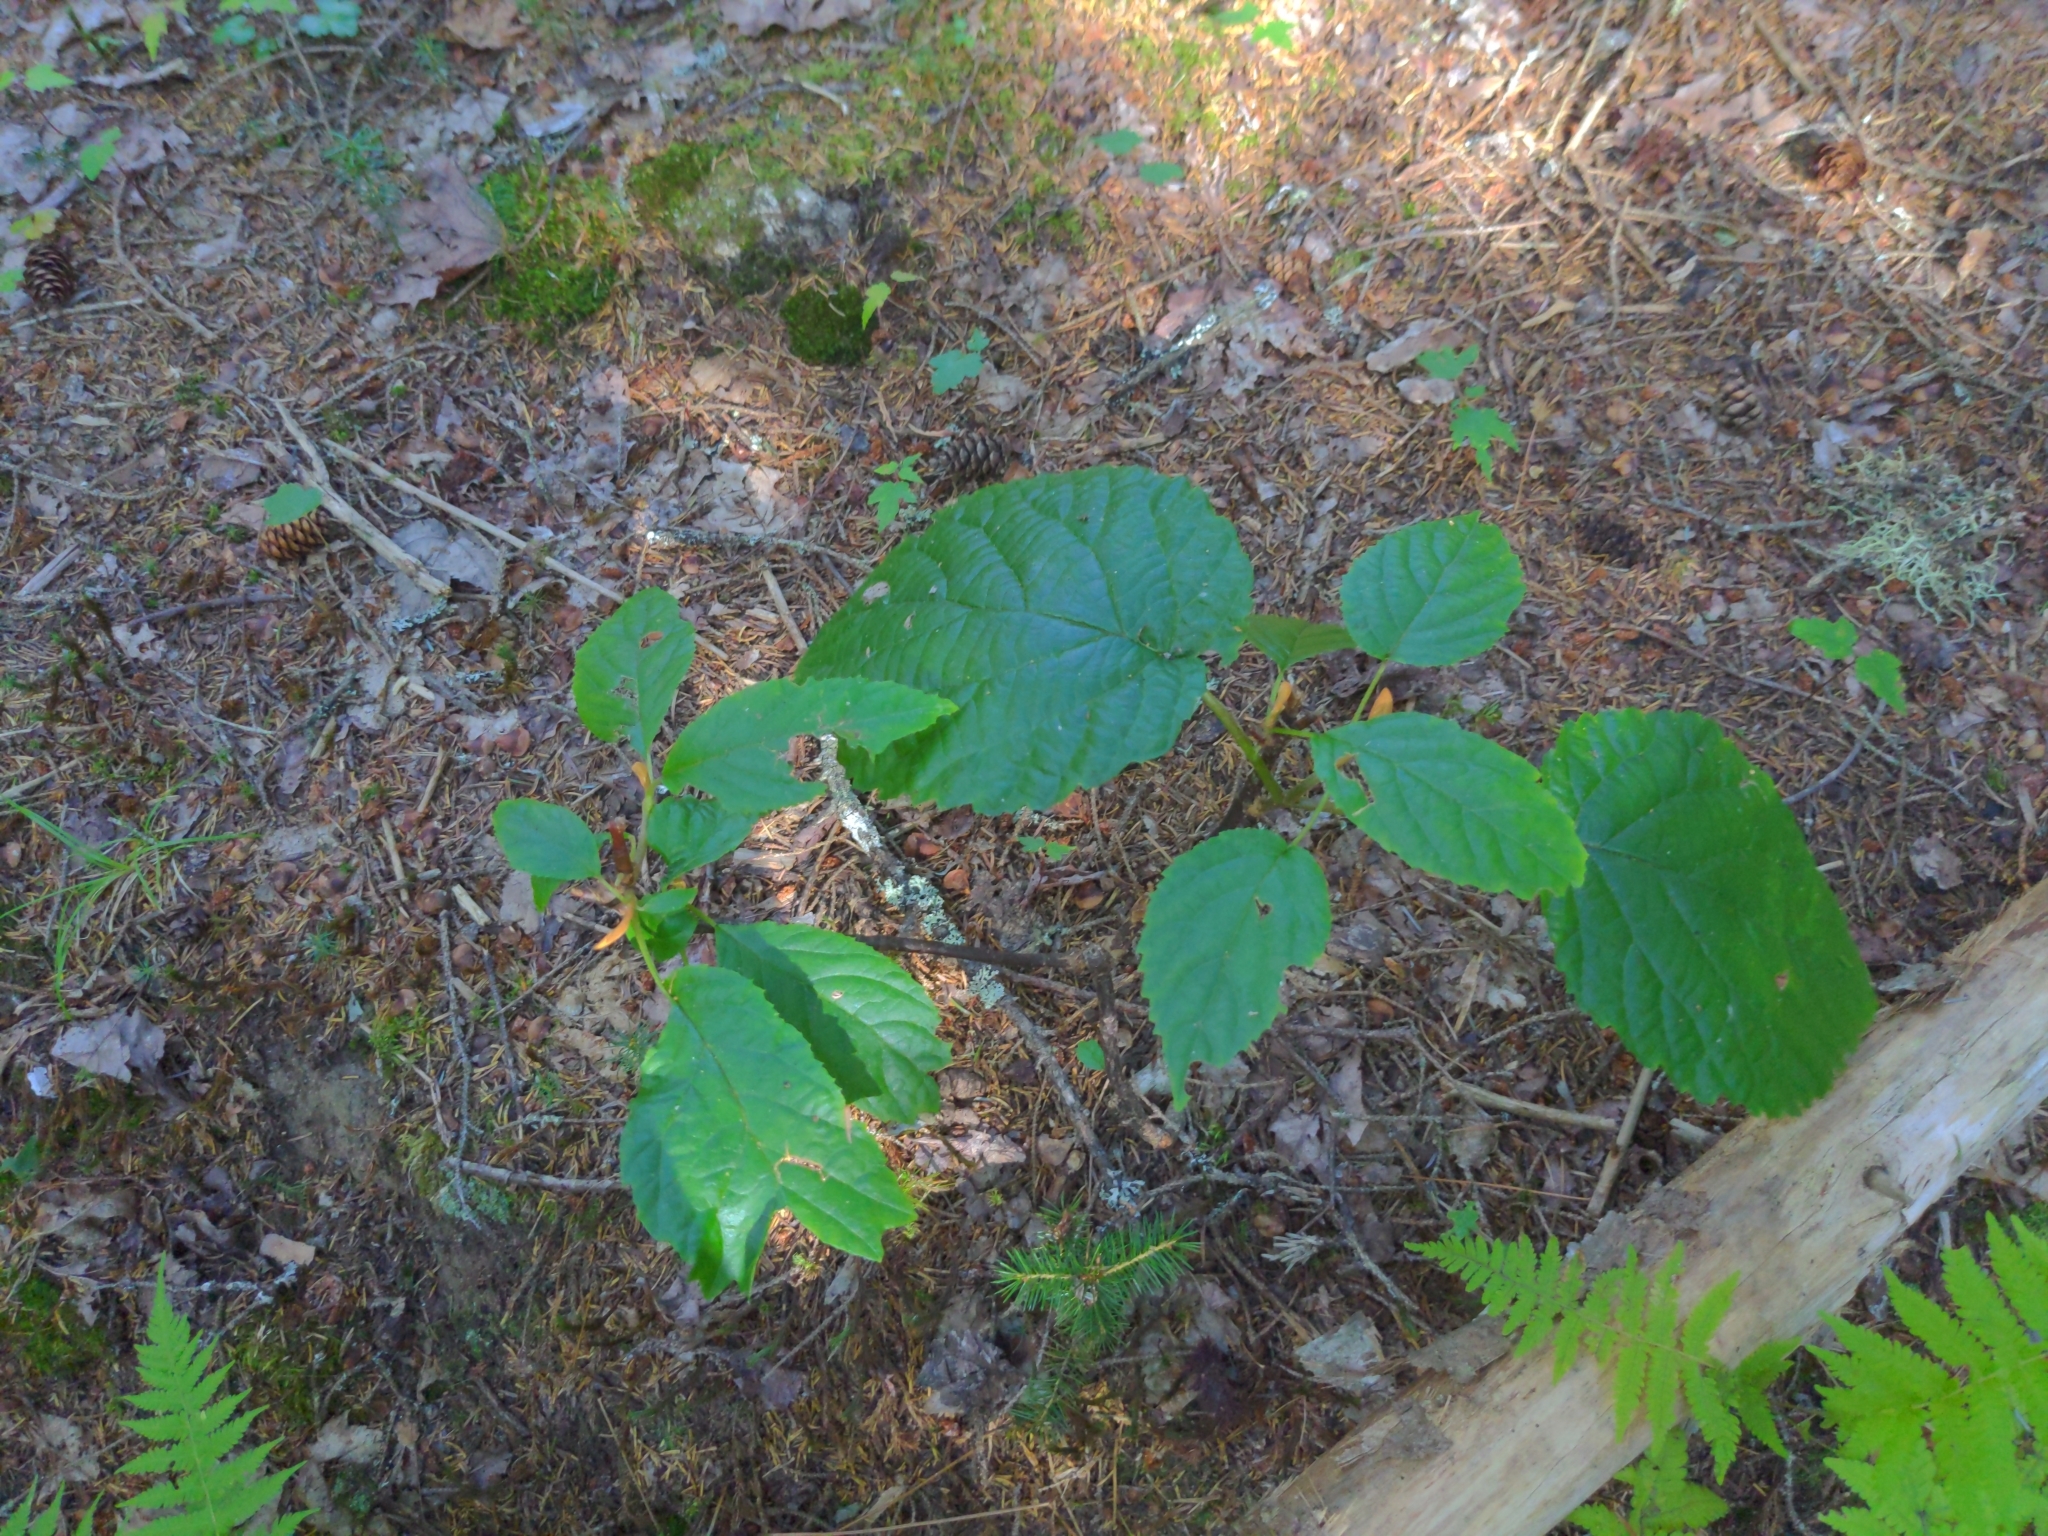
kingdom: Plantae
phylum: Tracheophyta
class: Magnoliopsida
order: Dipsacales
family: Viburnaceae
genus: Viburnum
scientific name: Viburnum lantanoides
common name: Hobblebush
